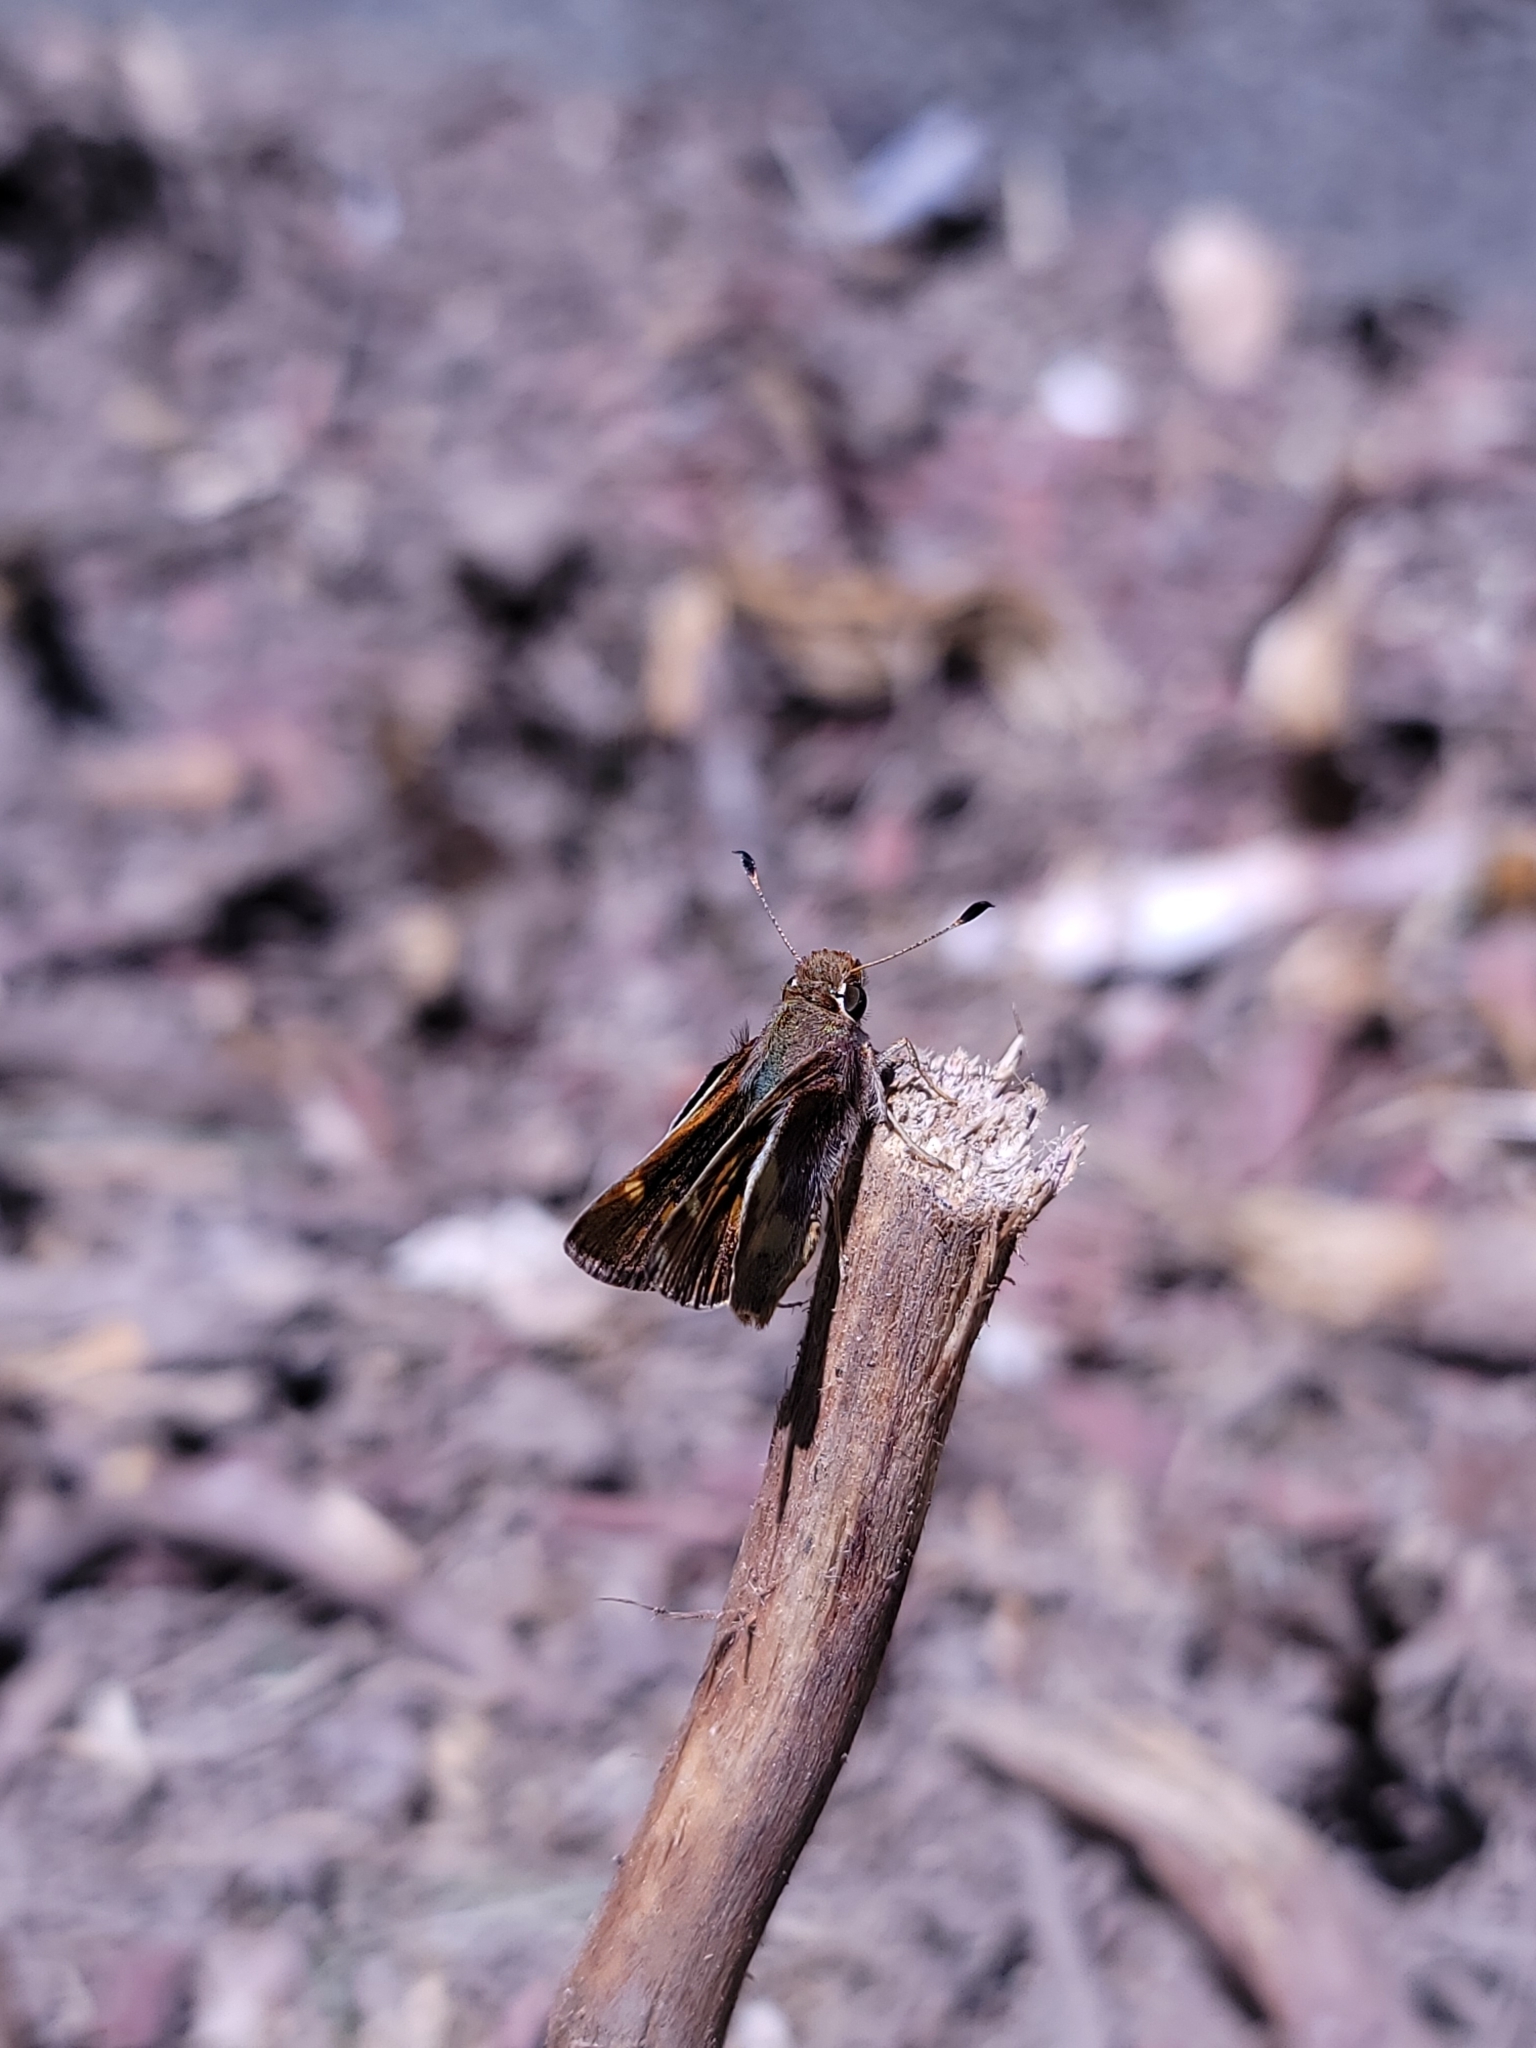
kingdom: Animalia
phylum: Arthropoda
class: Insecta
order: Lepidoptera
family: Hesperiidae
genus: Lon
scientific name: Lon melane
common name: Umber skipper
